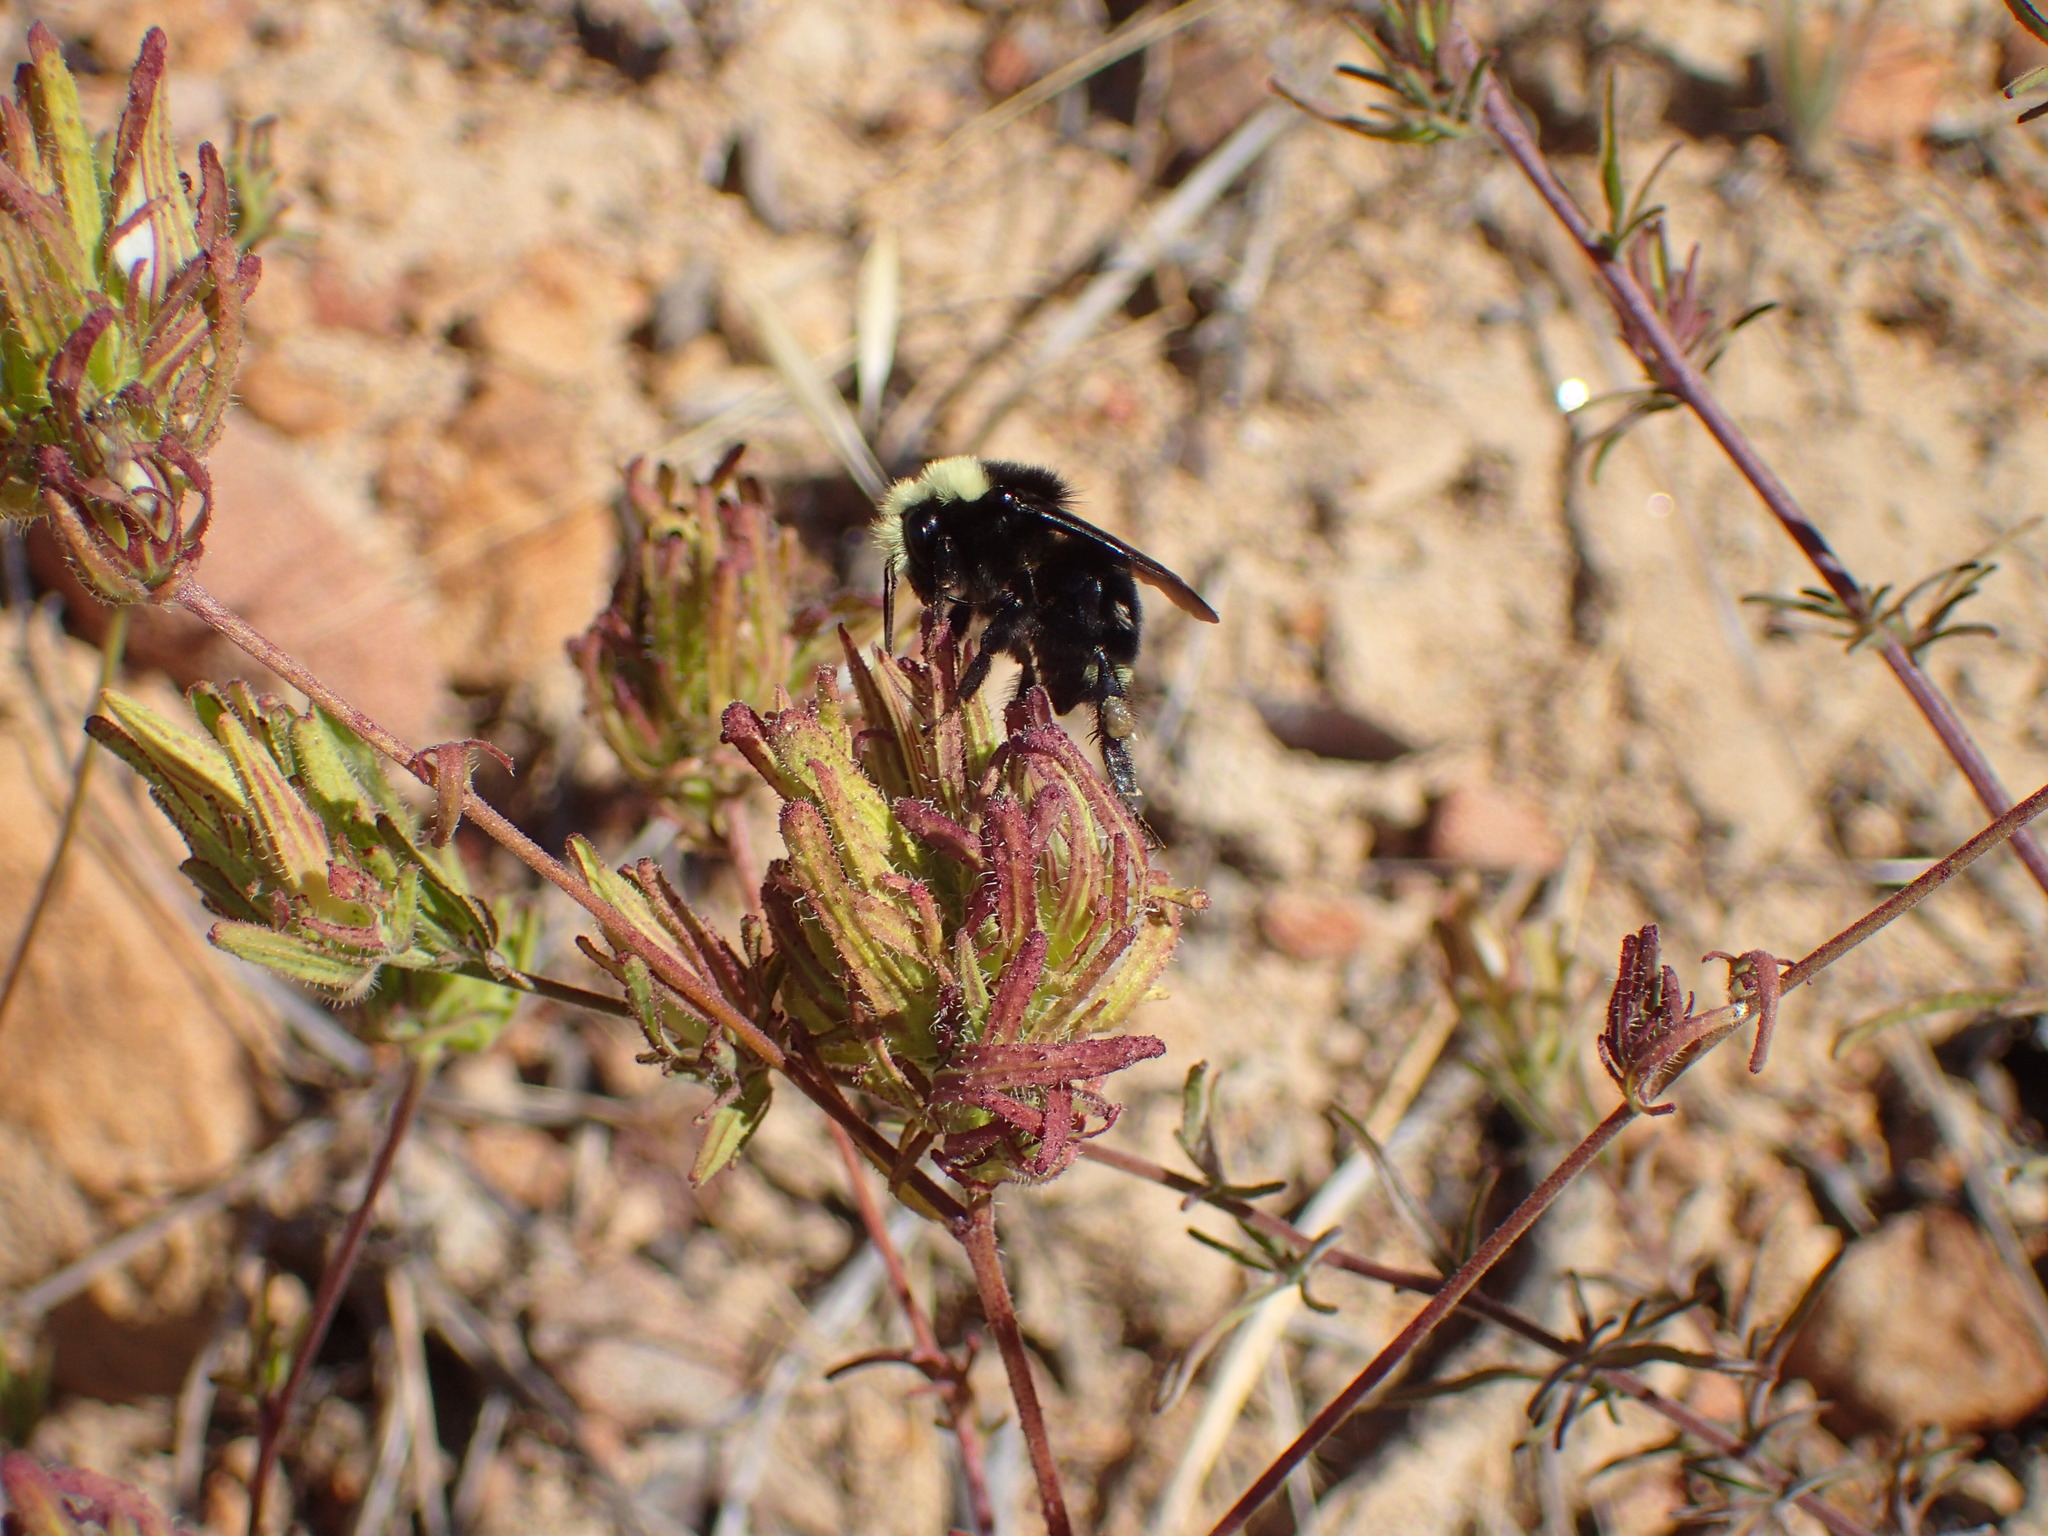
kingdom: Animalia
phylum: Arthropoda
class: Insecta
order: Hymenoptera
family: Apidae
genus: Bombus
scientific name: Bombus vosnesenskii
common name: Vosnesensky bumble bee
